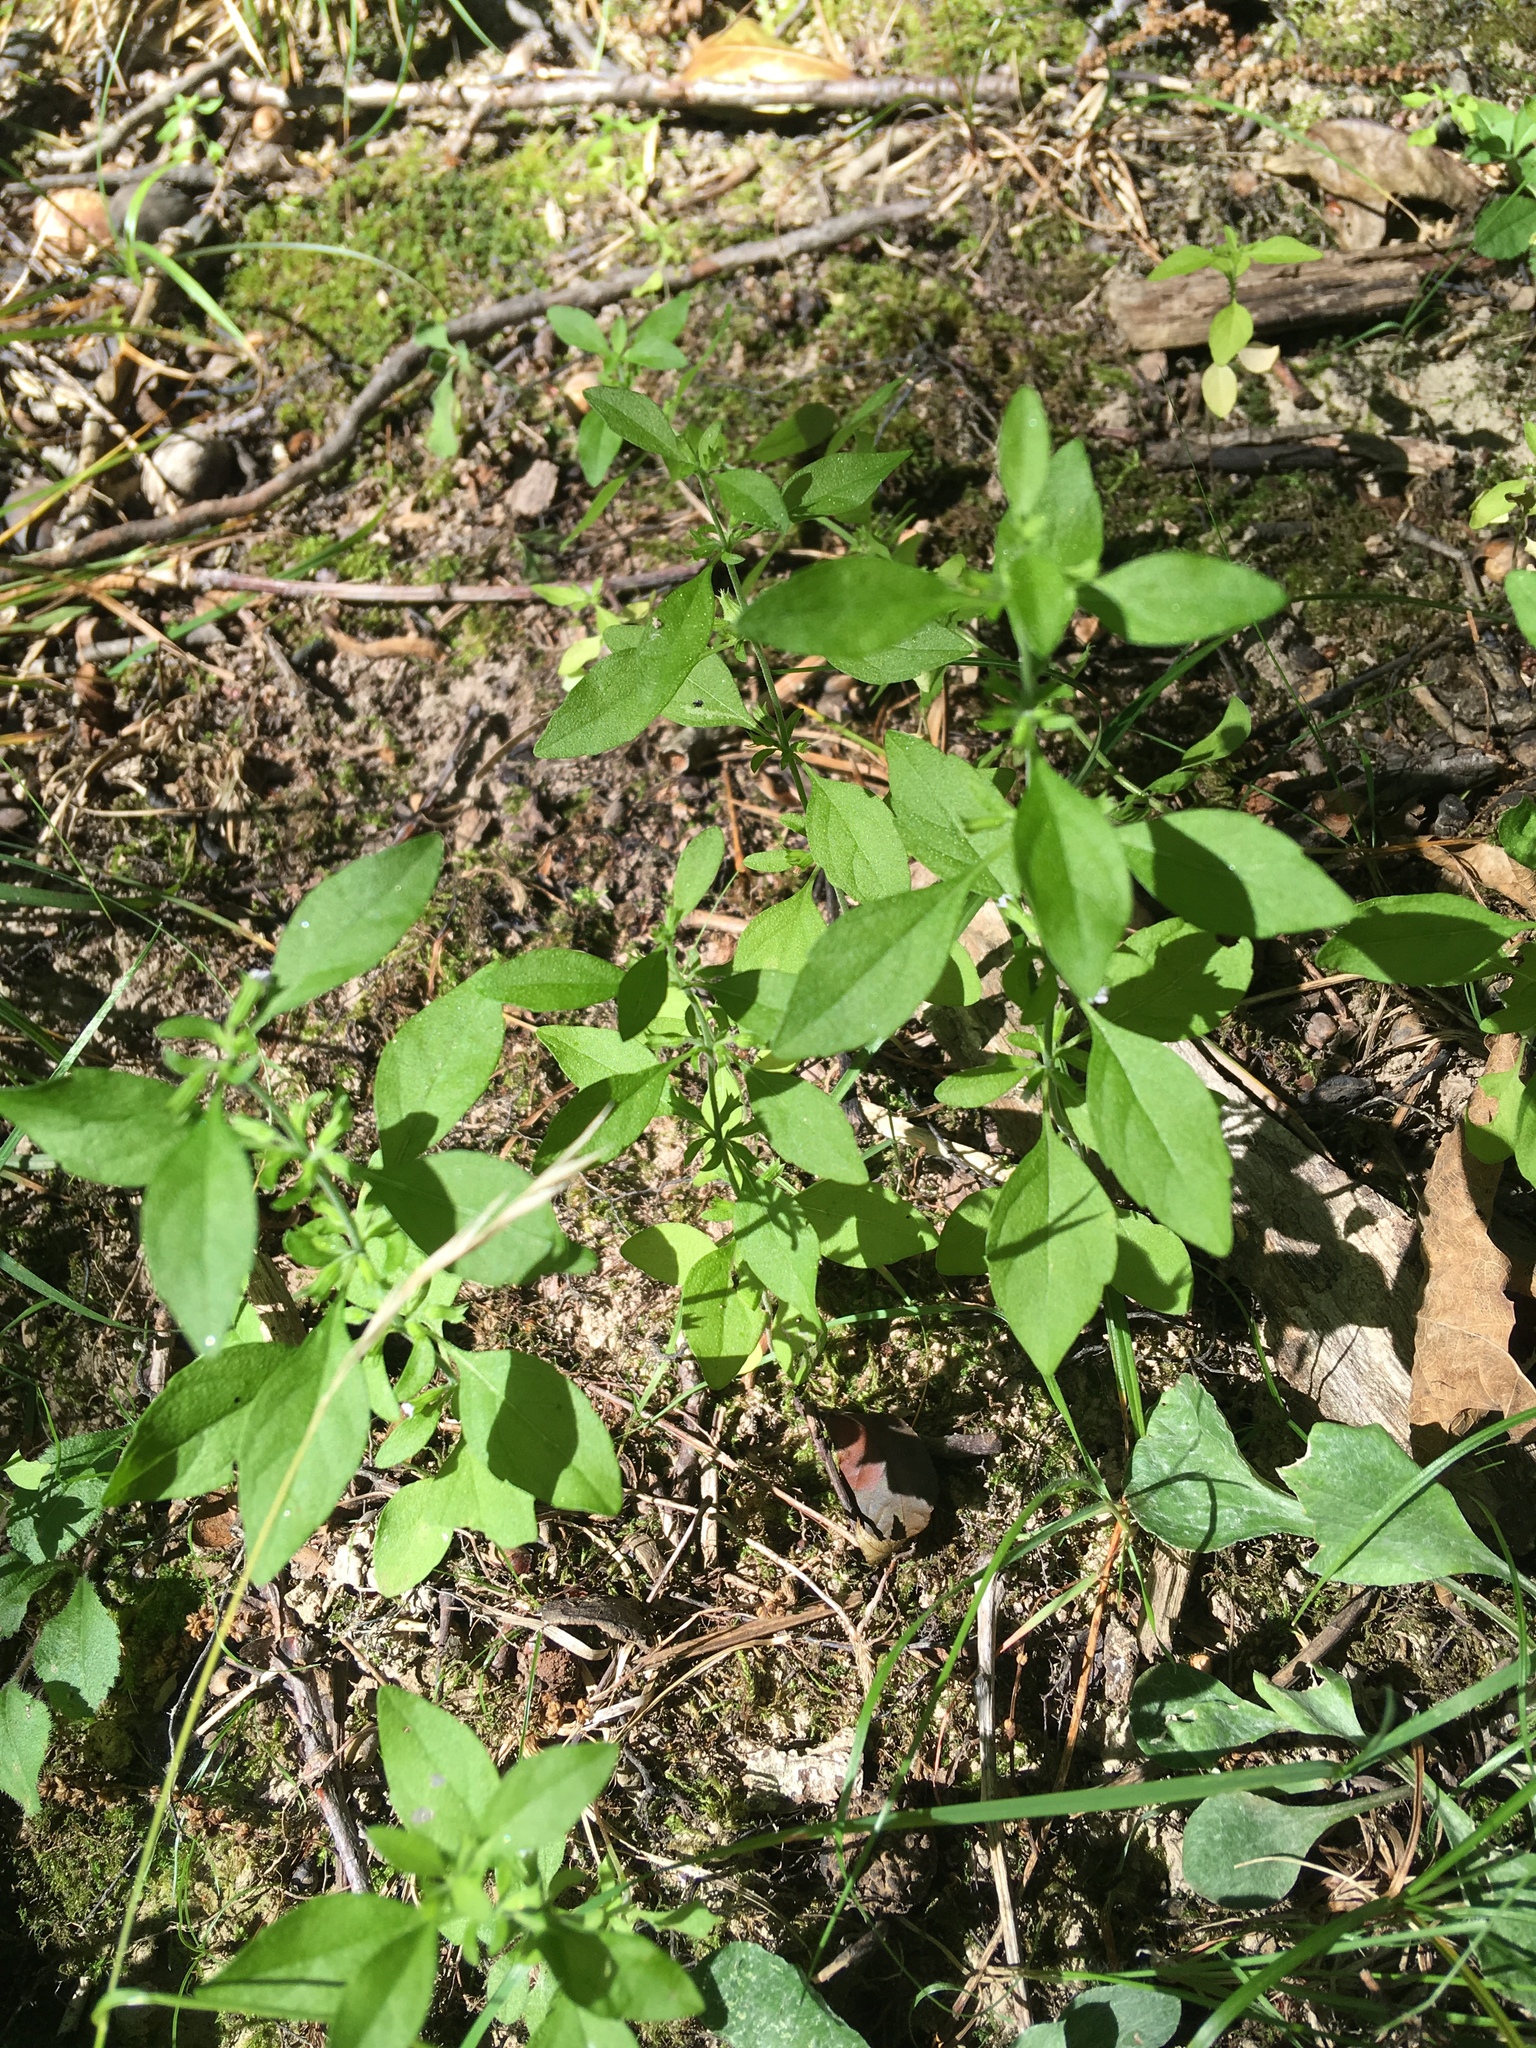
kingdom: Plantae
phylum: Tracheophyta
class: Magnoliopsida
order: Lamiales
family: Lamiaceae
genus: Hedeoma
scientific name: Hedeoma pulegioides
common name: American false pennyroyal
